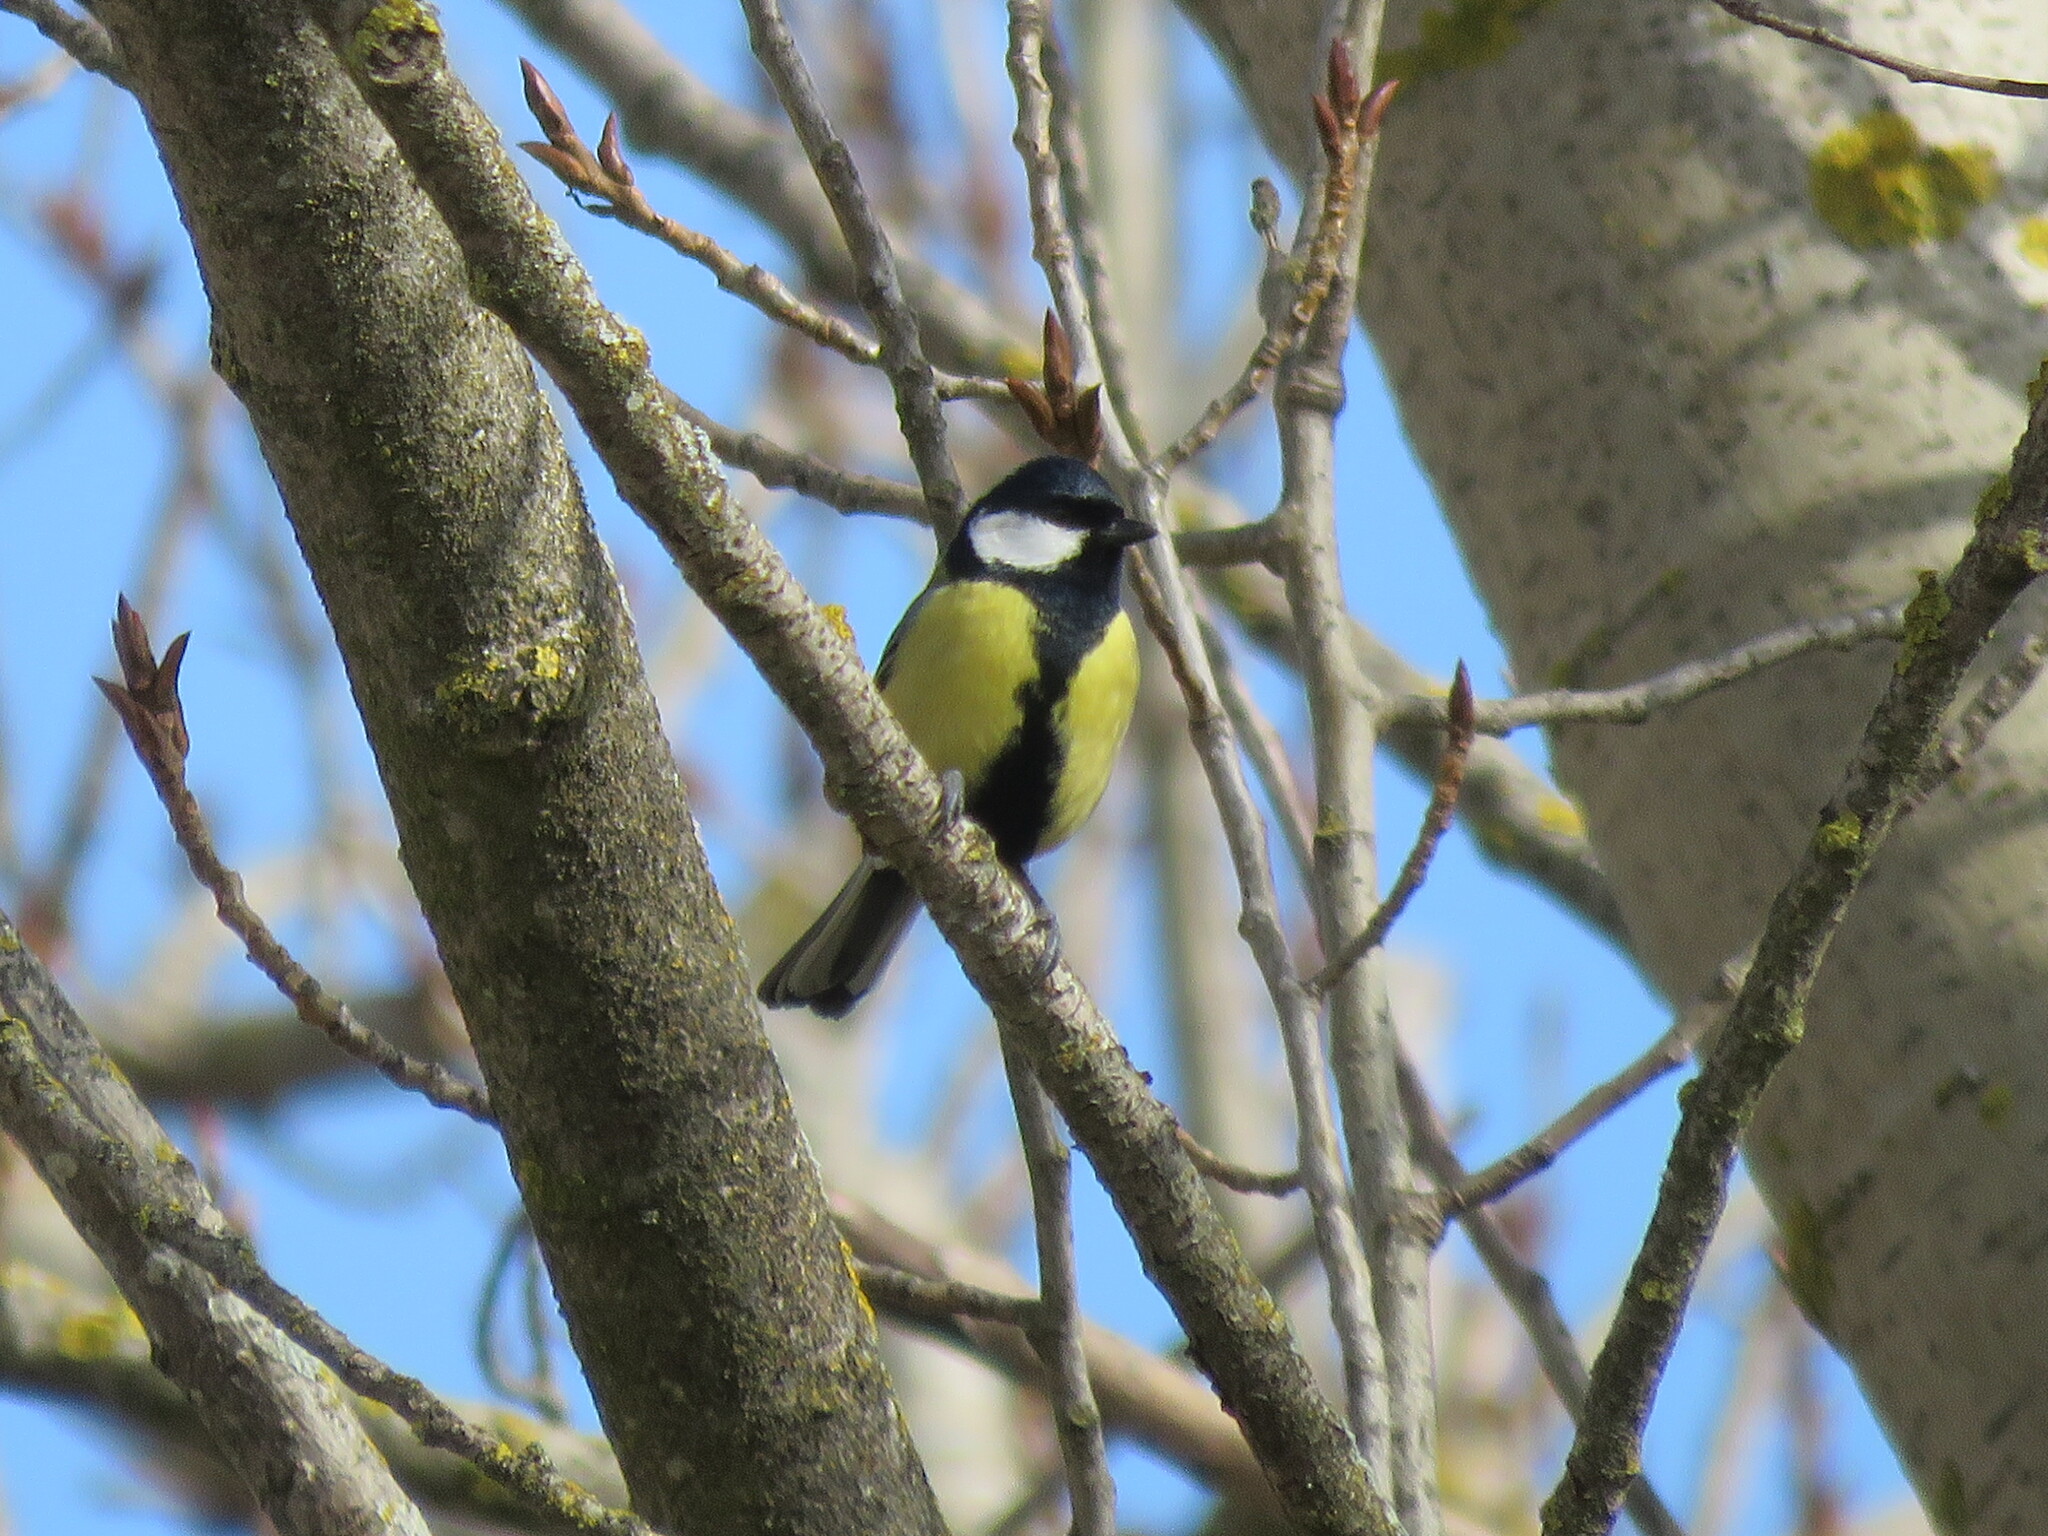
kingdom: Animalia
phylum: Chordata
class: Aves
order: Passeriformes
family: Paridae
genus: Parus
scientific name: Parus major
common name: Great tit
